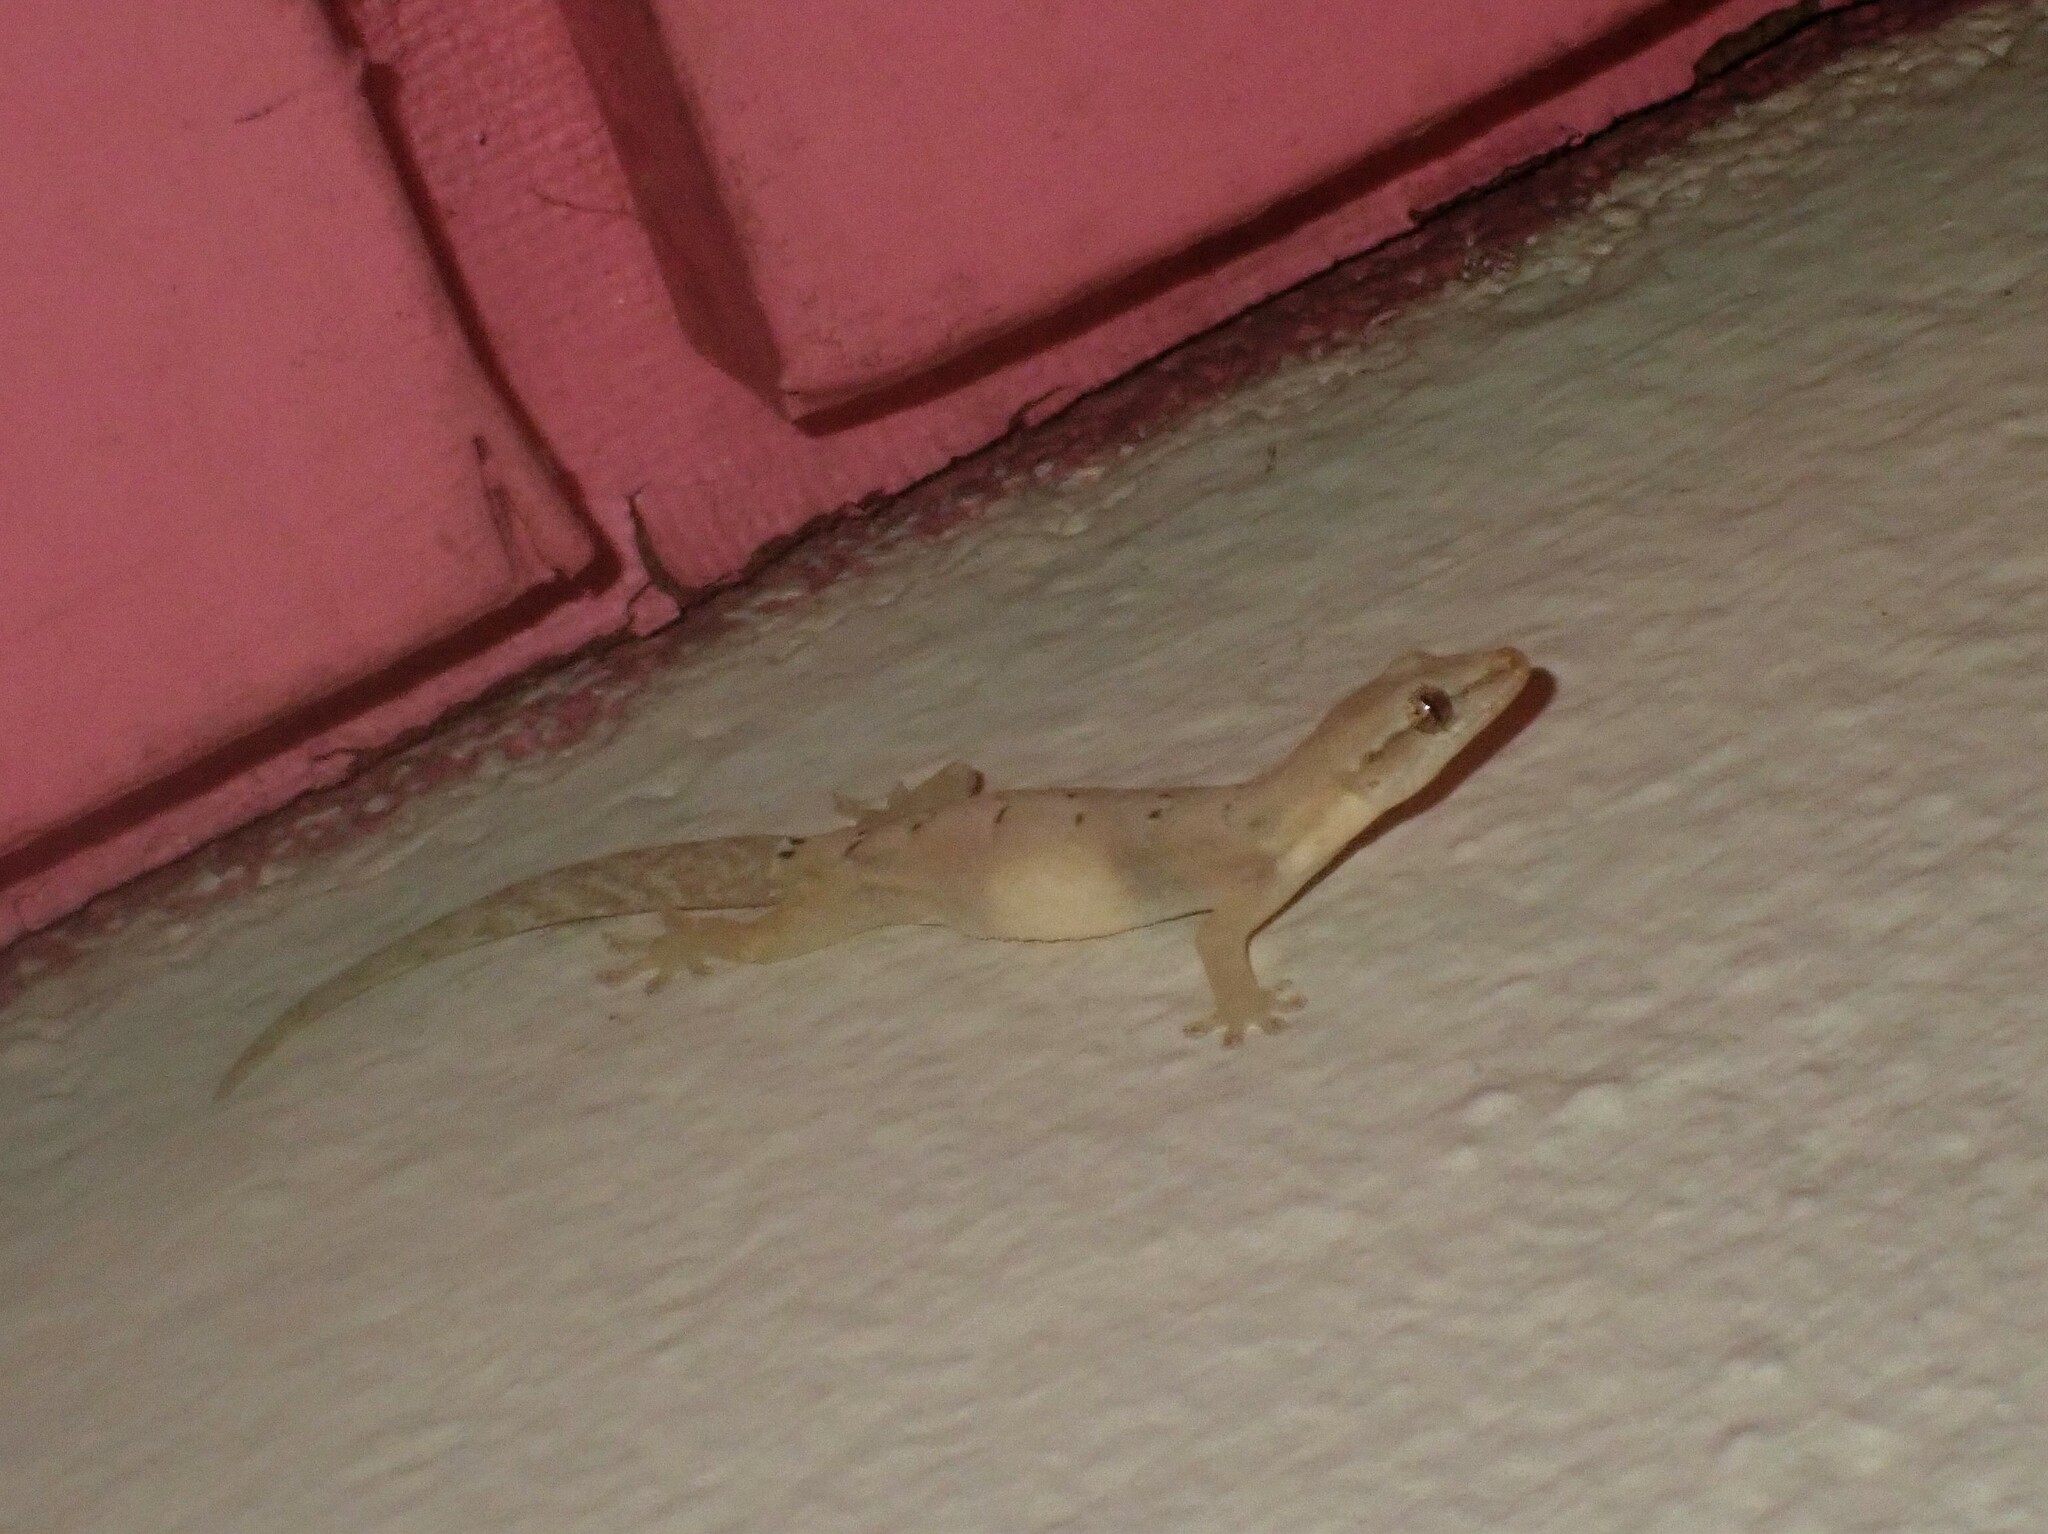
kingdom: Animalia
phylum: Chordata
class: Squamata
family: Gekkonidae
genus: Lepidodactylus
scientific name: Lepidodactylus lugubris
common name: Mourning gecko
